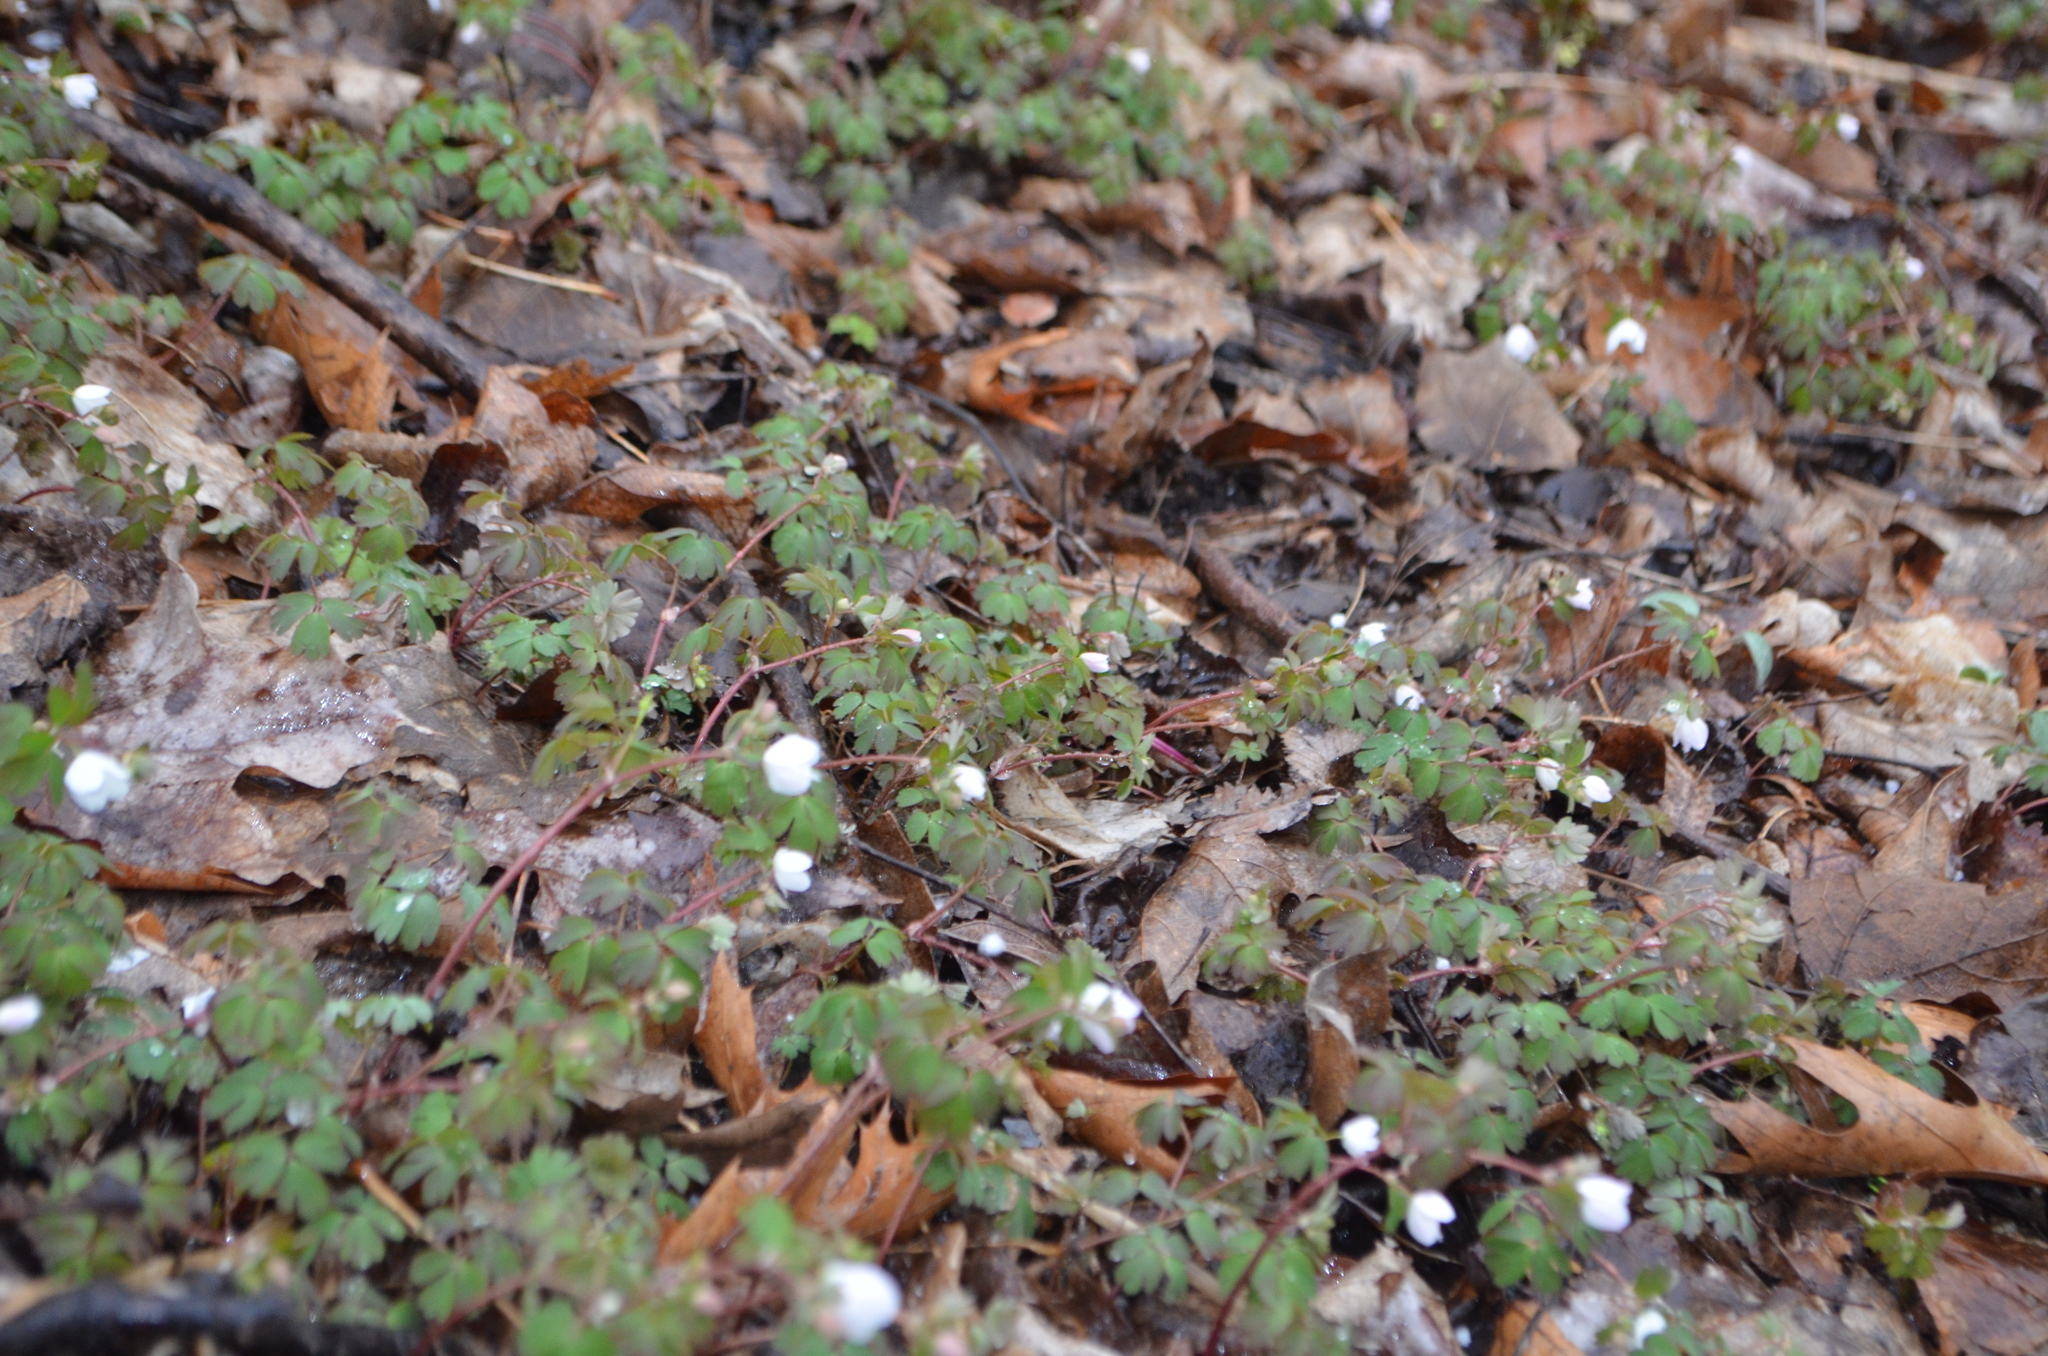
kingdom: Plantae
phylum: Tracheophyta
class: Magnoliopsida
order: Ranunculales
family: Ranunculaceae
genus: Enemion
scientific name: Enemion biternatum
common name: Eastern false rue-anemone
